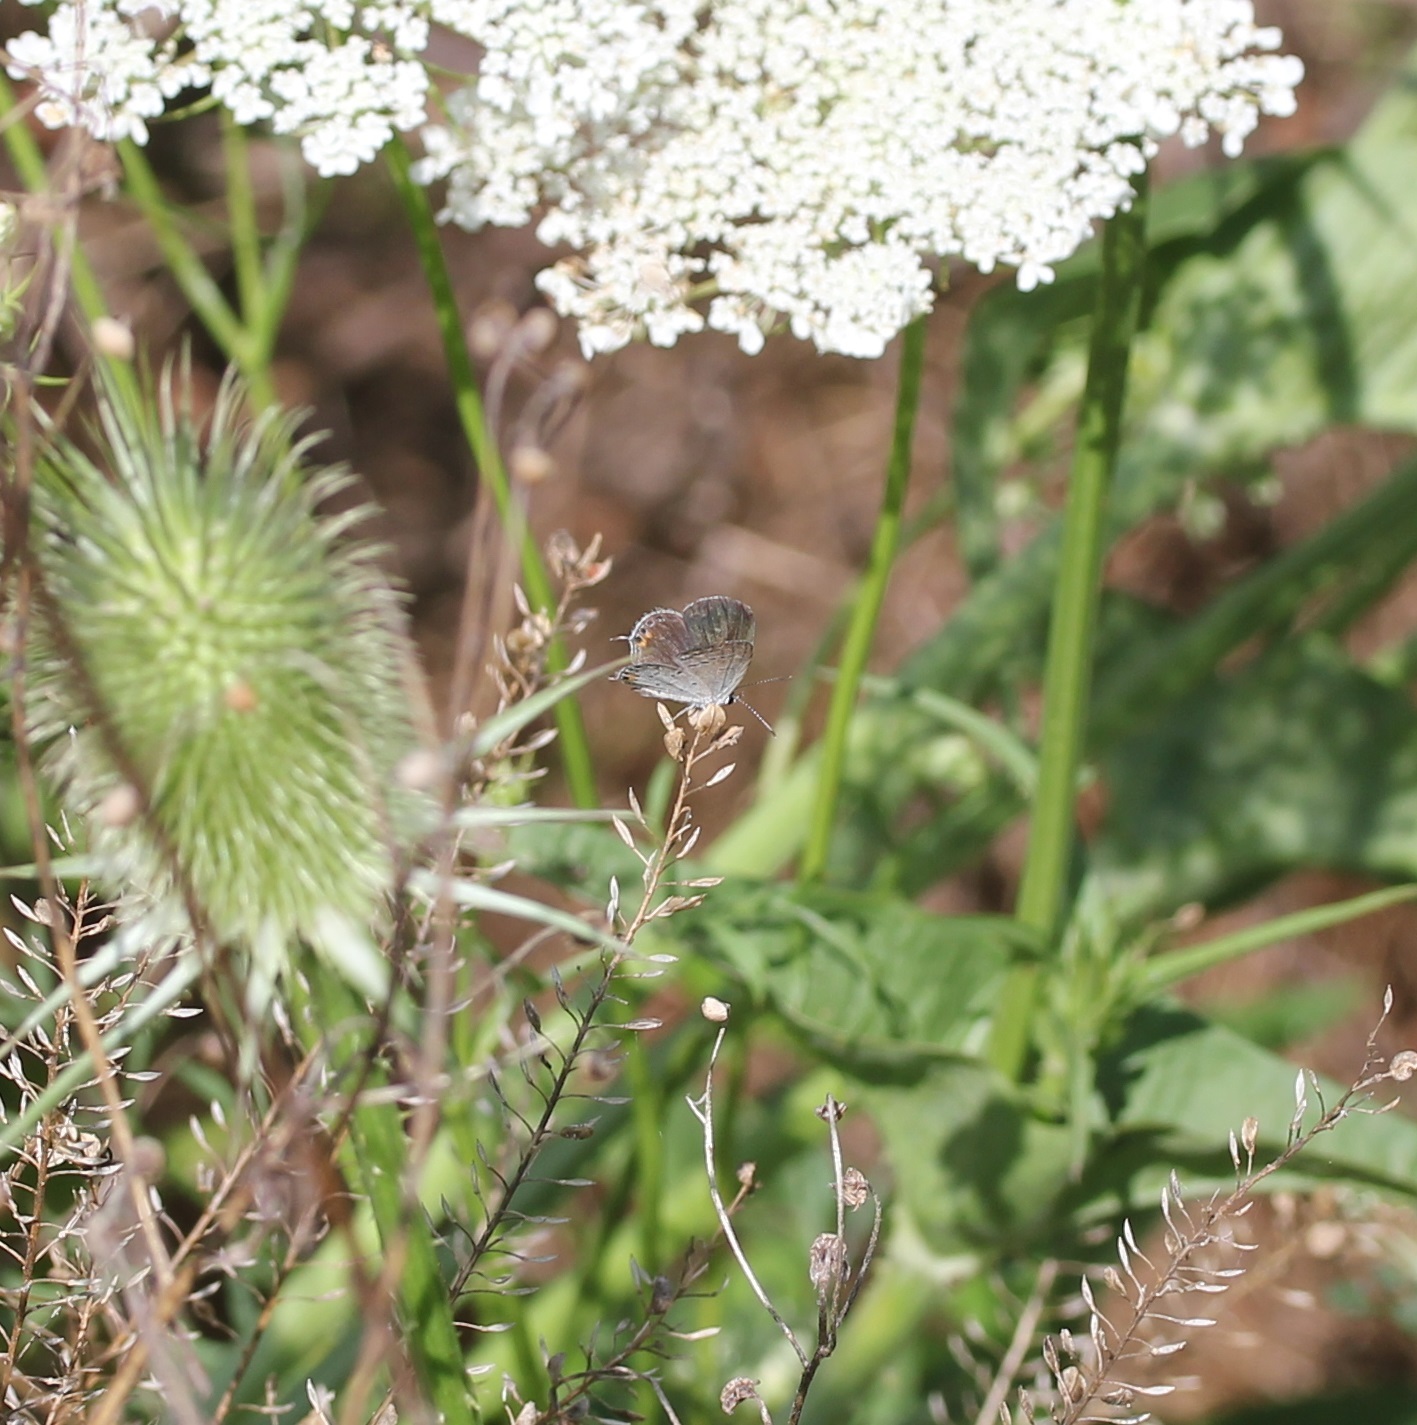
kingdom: Animalia
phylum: Arthropoda
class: Insecta
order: Lepidoptera
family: Lycaenidae
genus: Elkalyce
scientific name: Elkalyce comyntas
